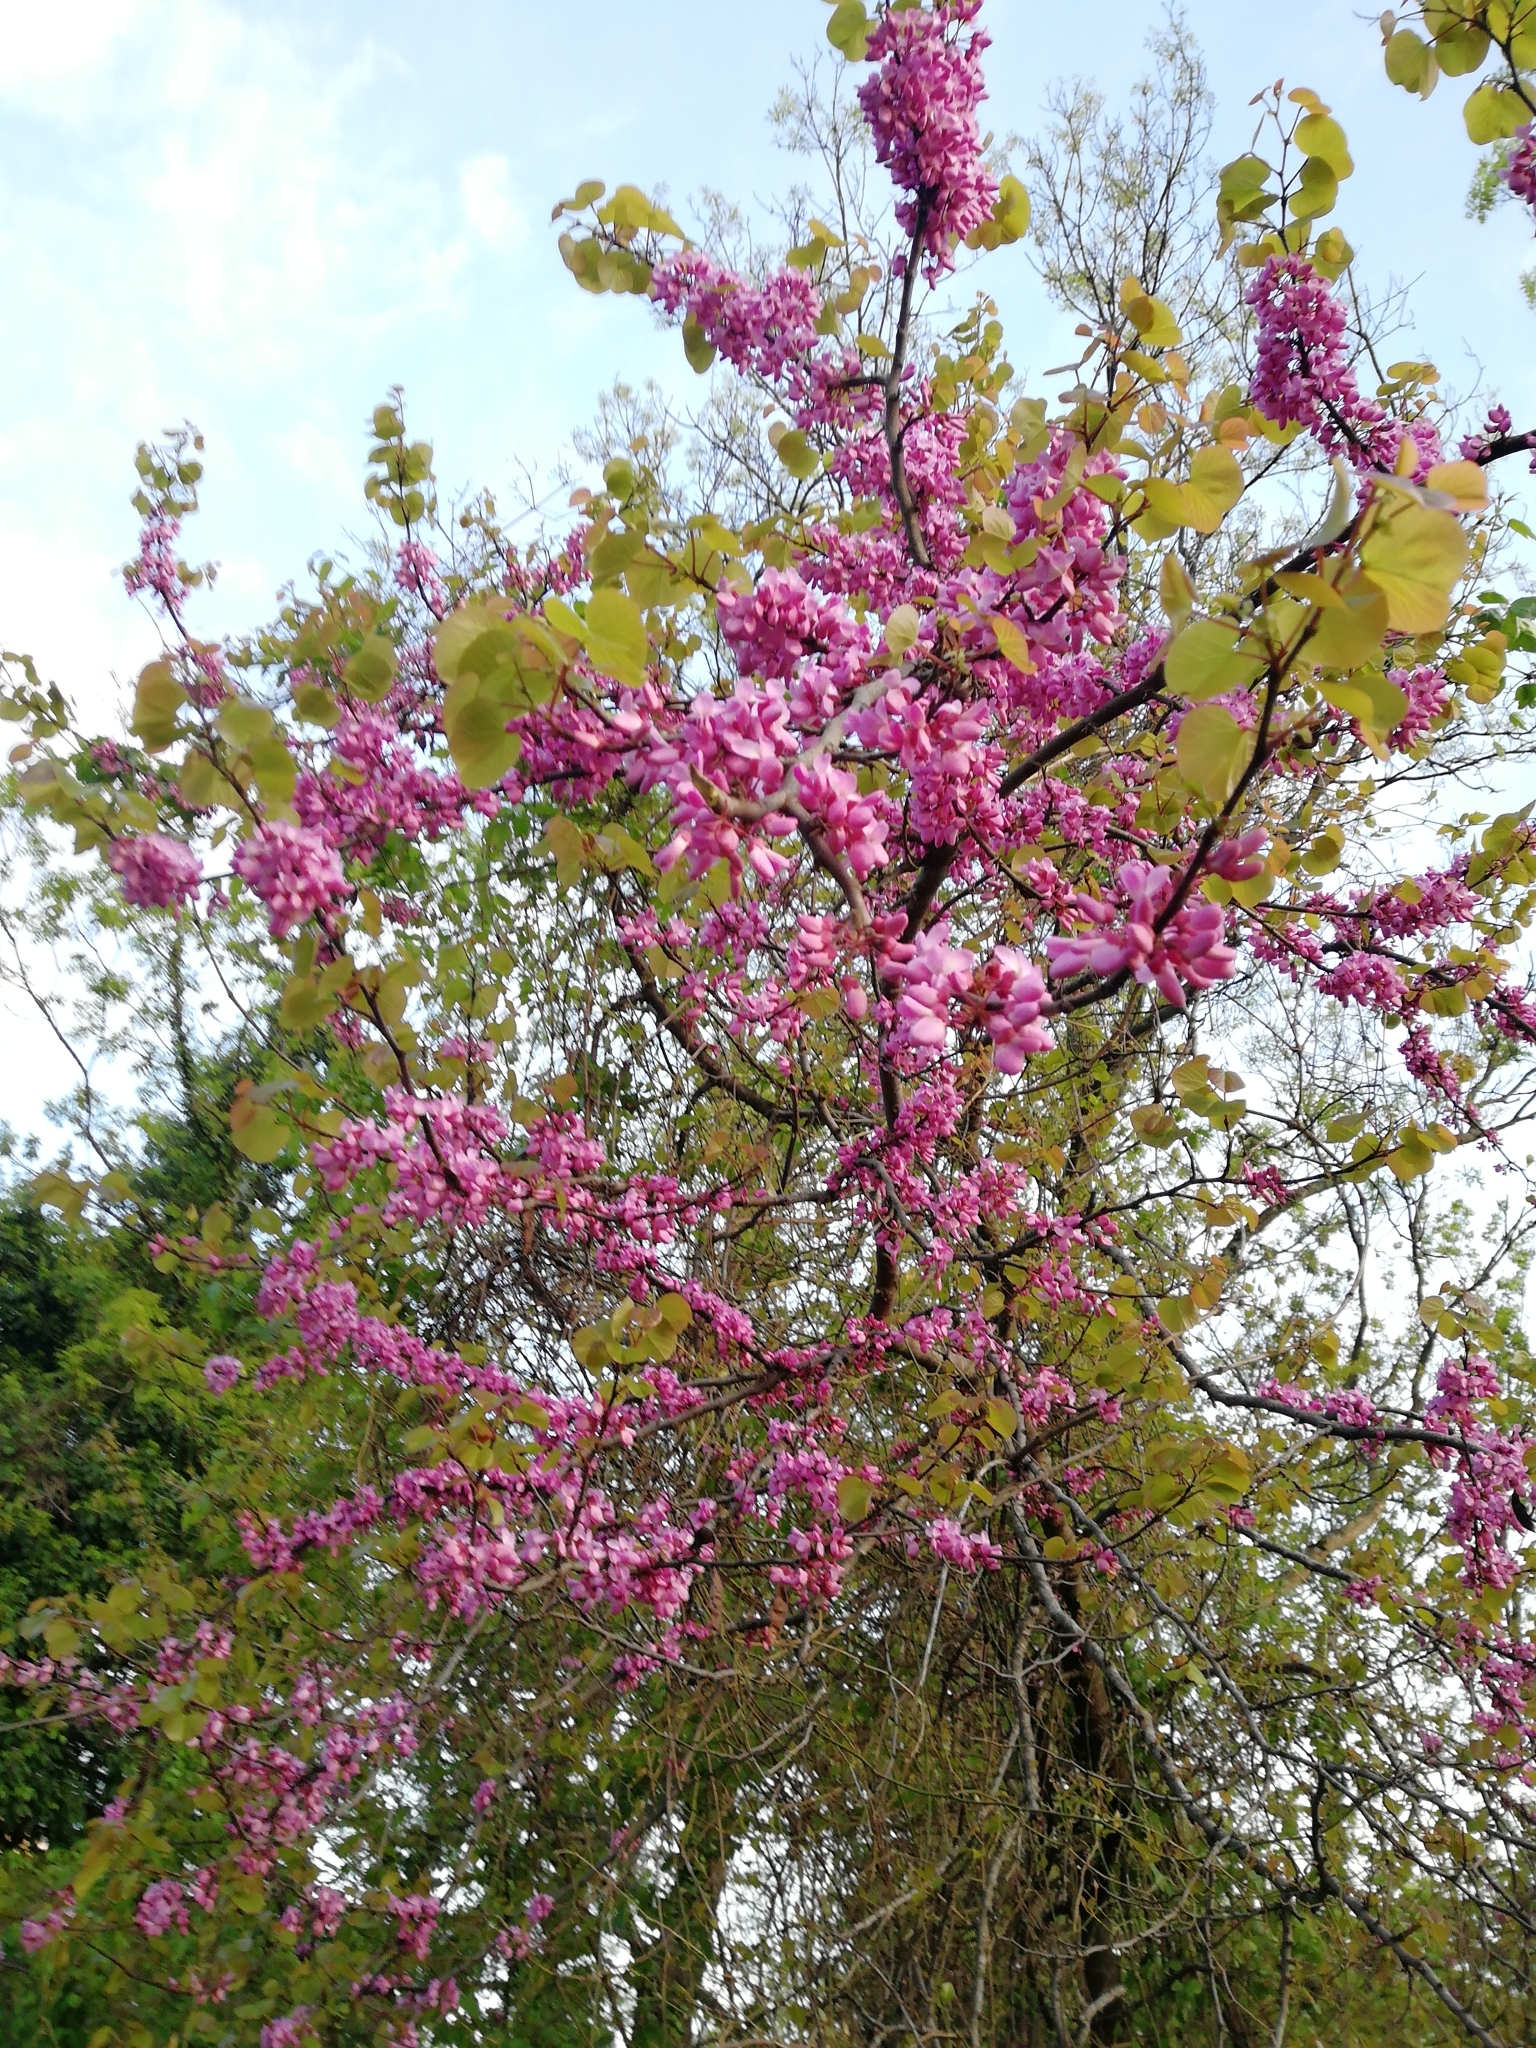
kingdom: Plantae
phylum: Tracheophyta
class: Magnoliopsida
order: Fabales
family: Fabaceae
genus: Cercis
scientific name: Cercis siliquastrum
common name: Judas tree
